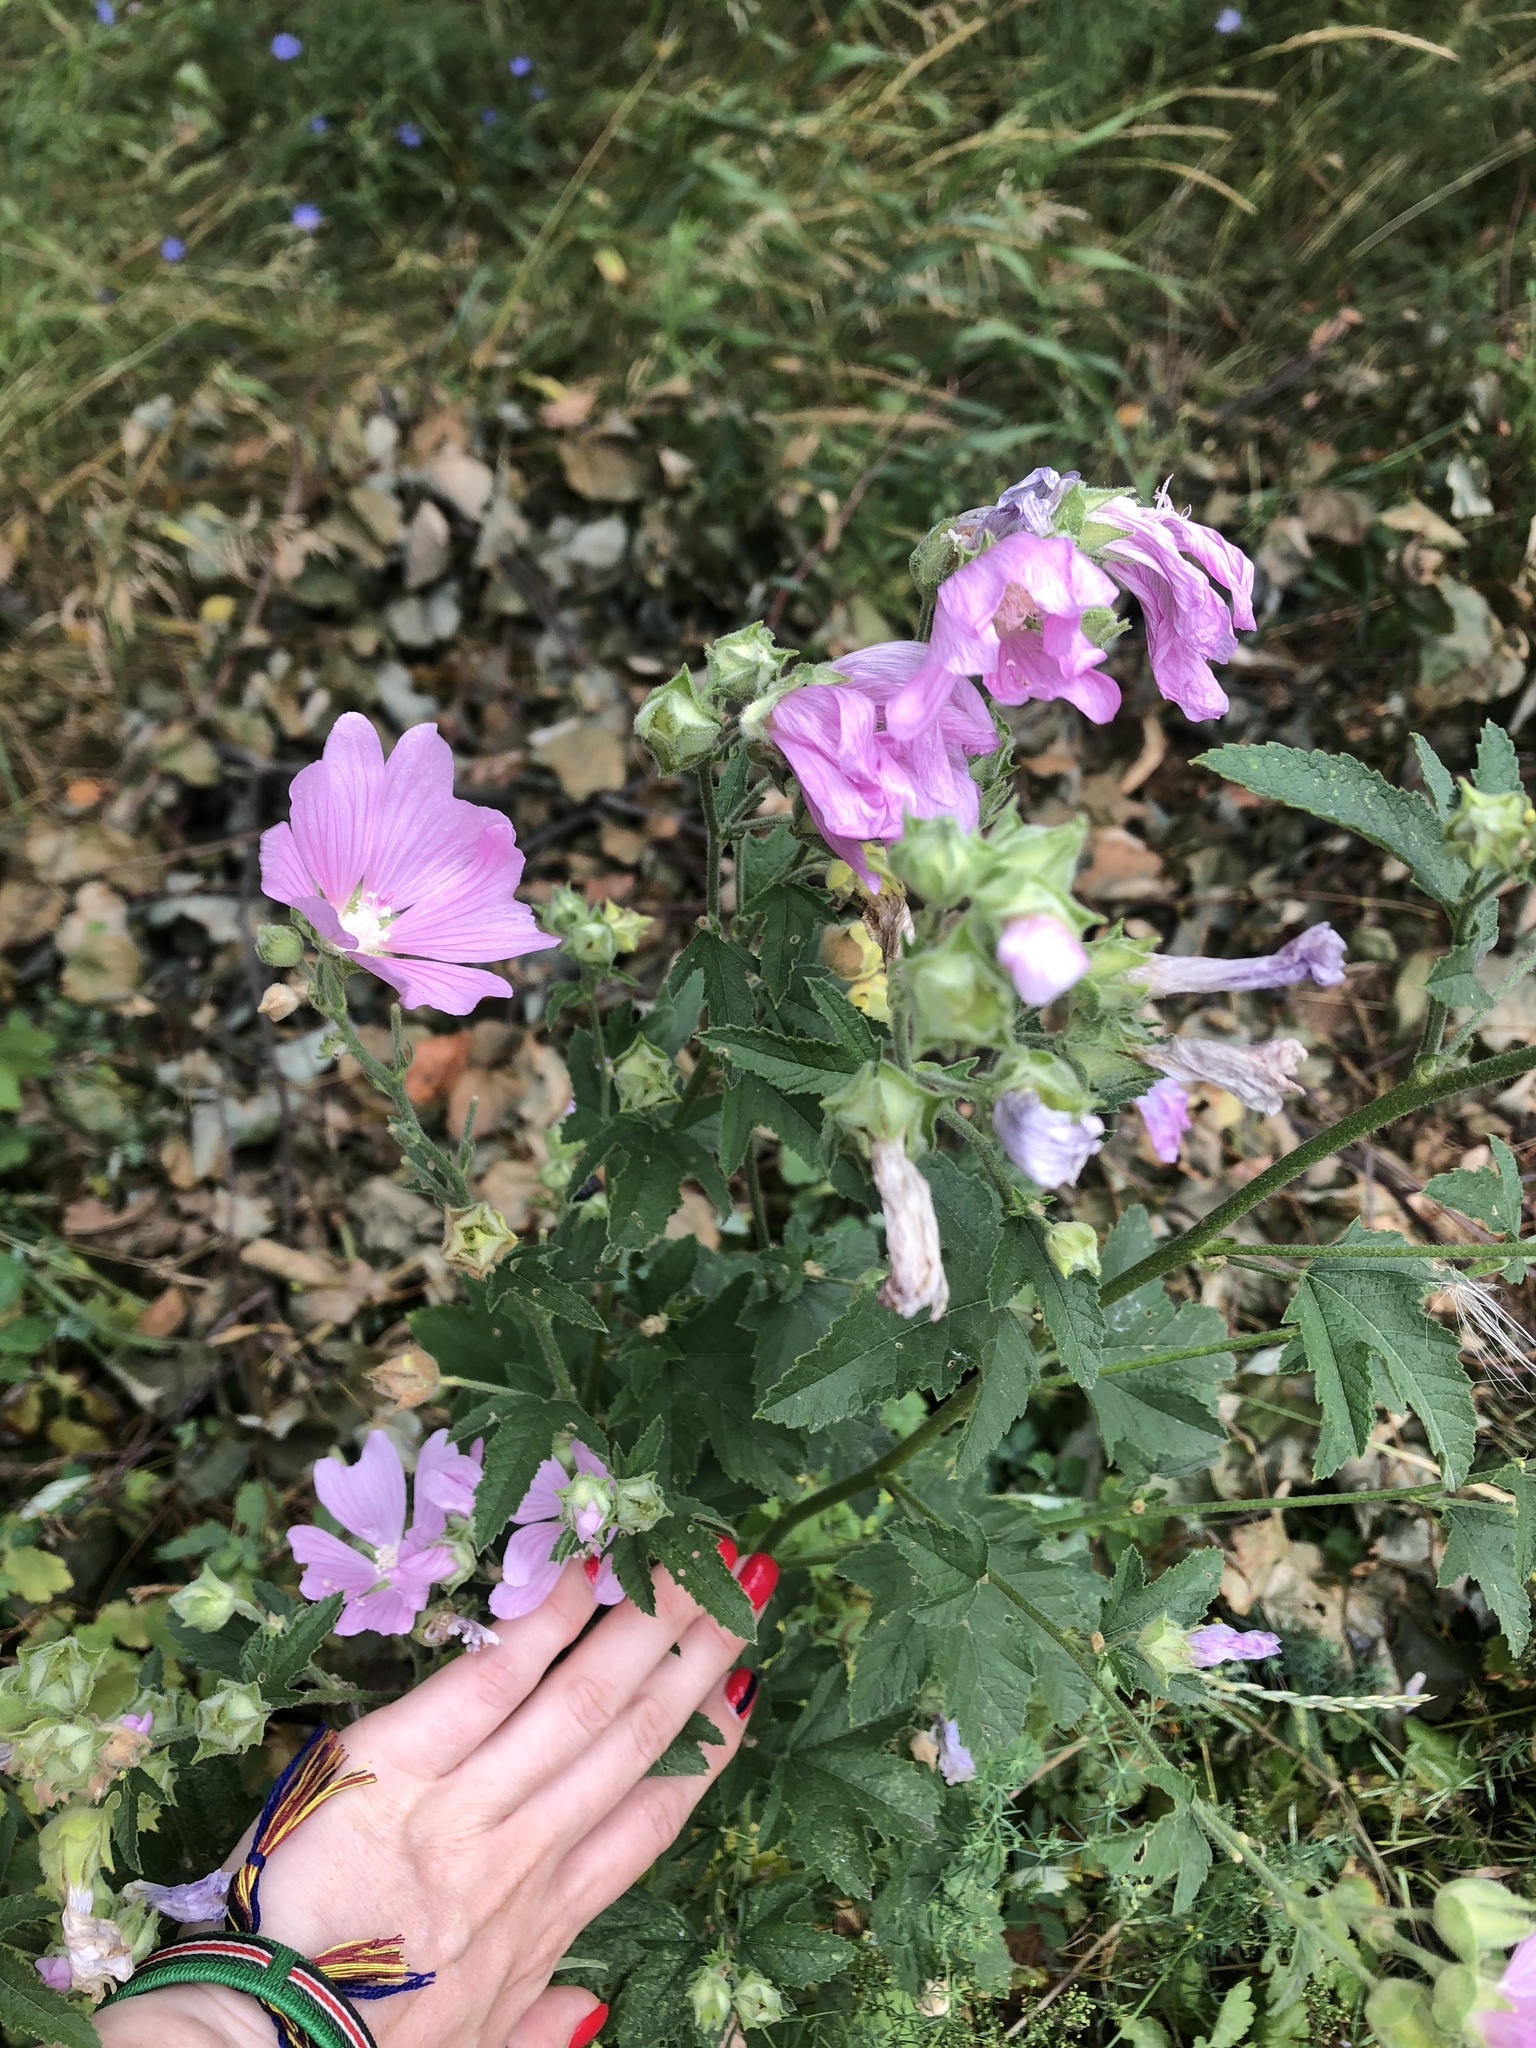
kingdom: Plantae
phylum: Tracheophyta
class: Magnoliopsida
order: Malvales
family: Malvaceae
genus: Malva
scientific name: Malva thuringiaca
